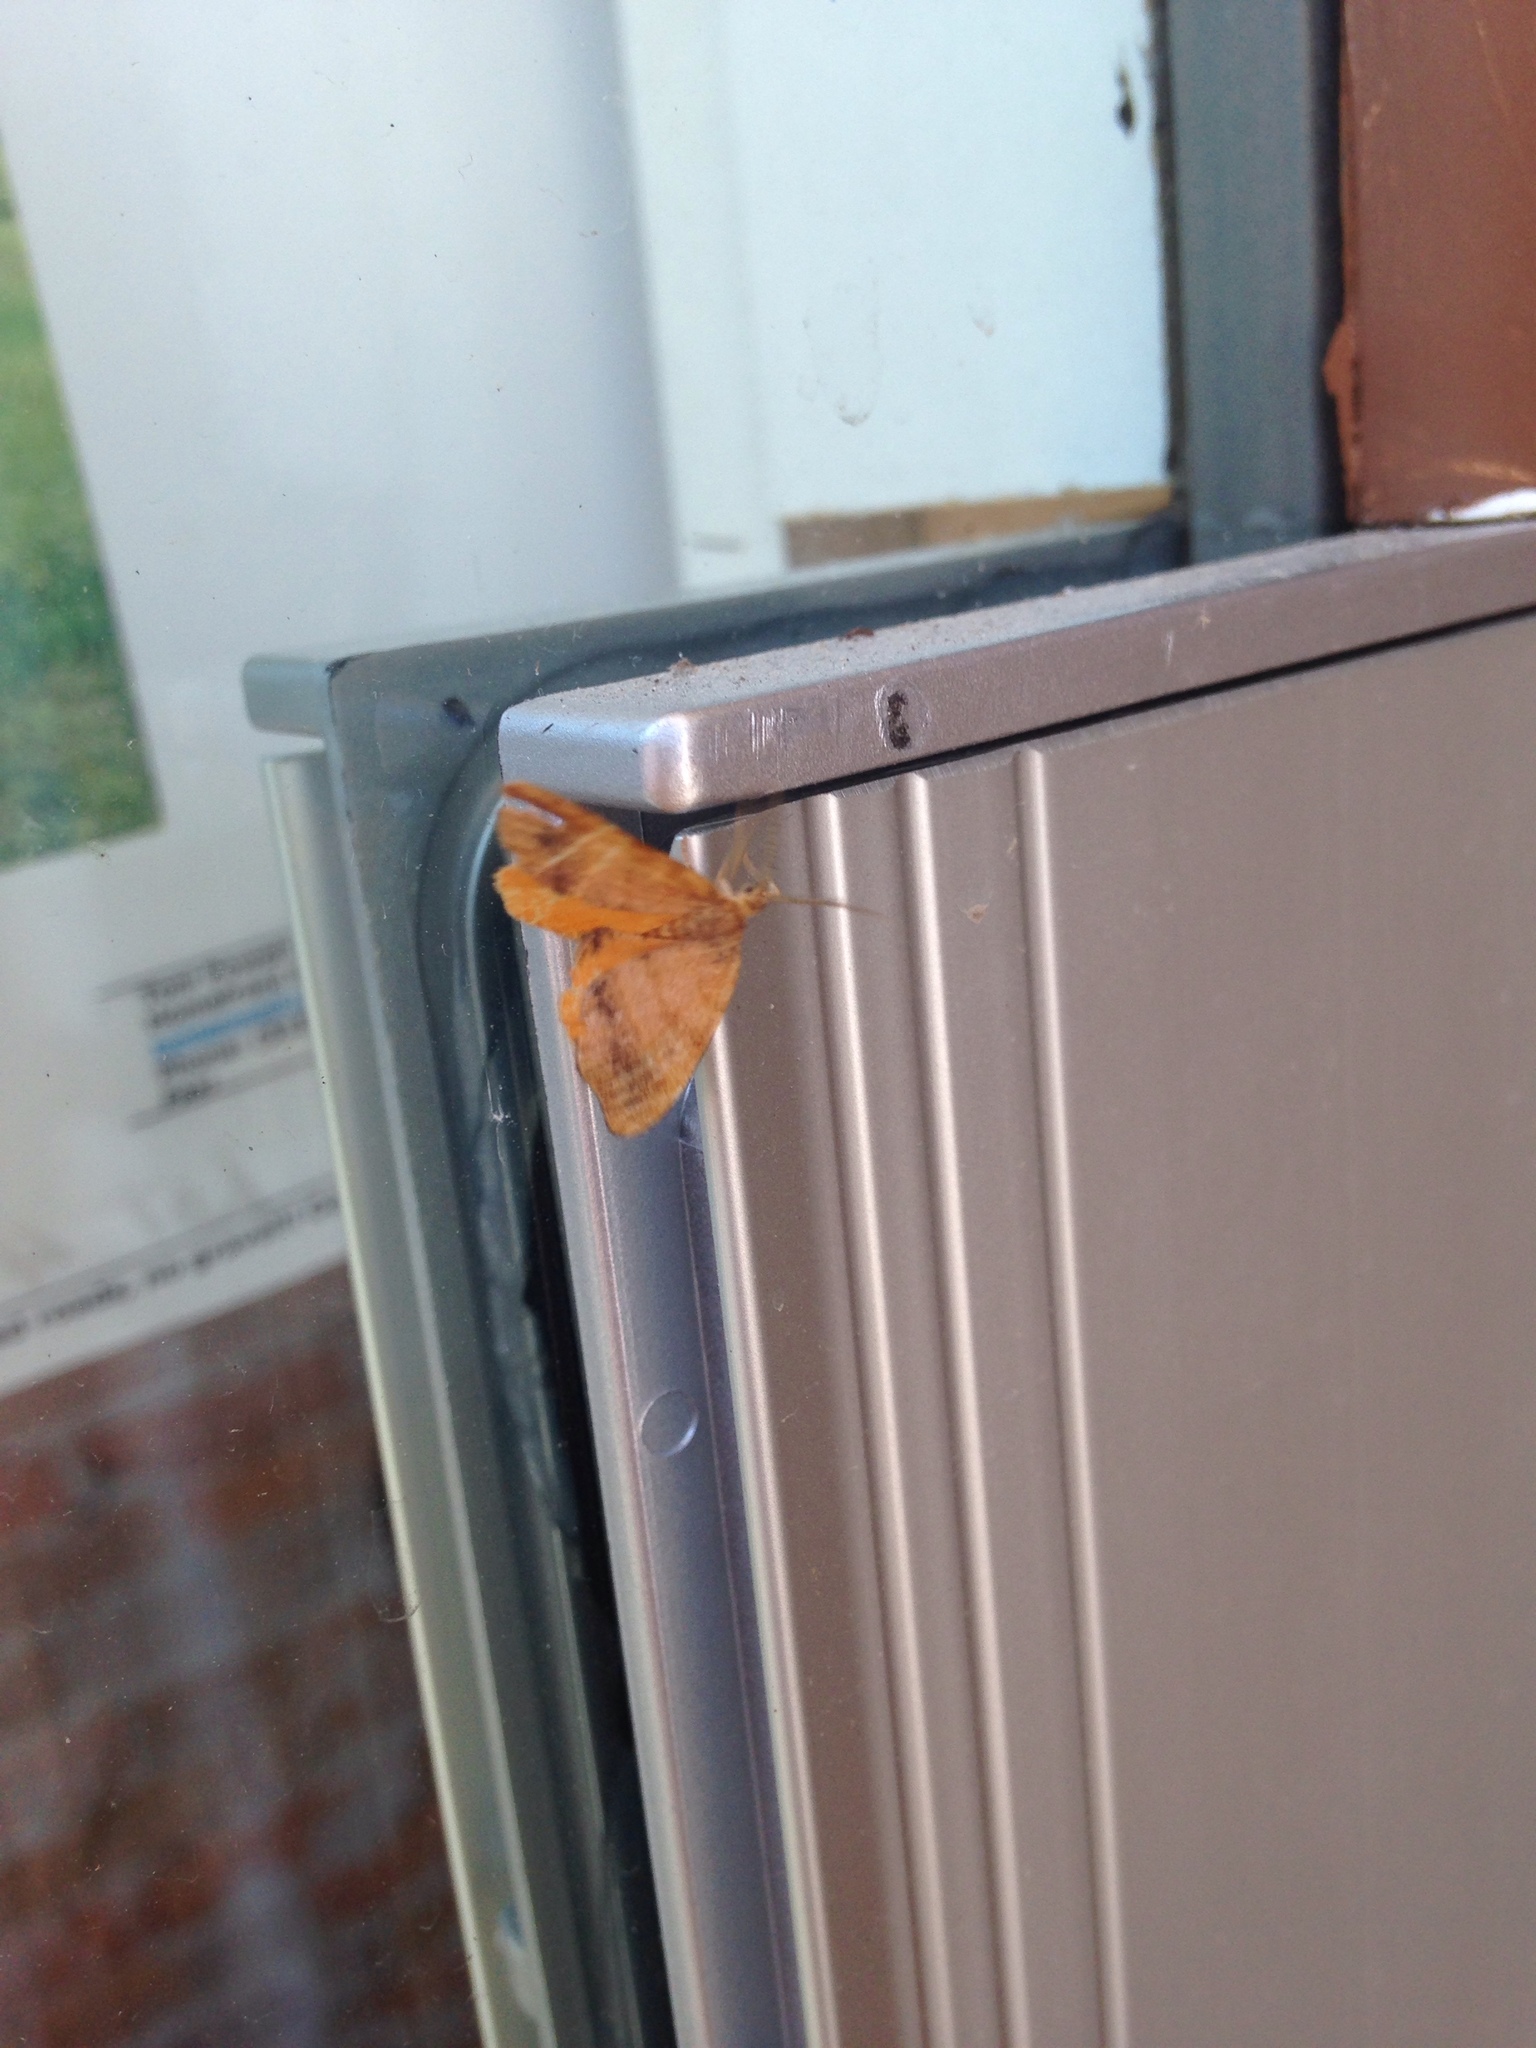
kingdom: Animalia
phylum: Arthropoda
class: Insecta
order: Lepidoptera
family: Geometridae
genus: Mellilla
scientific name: Mellilla xanthometata
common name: Orange wing moth
